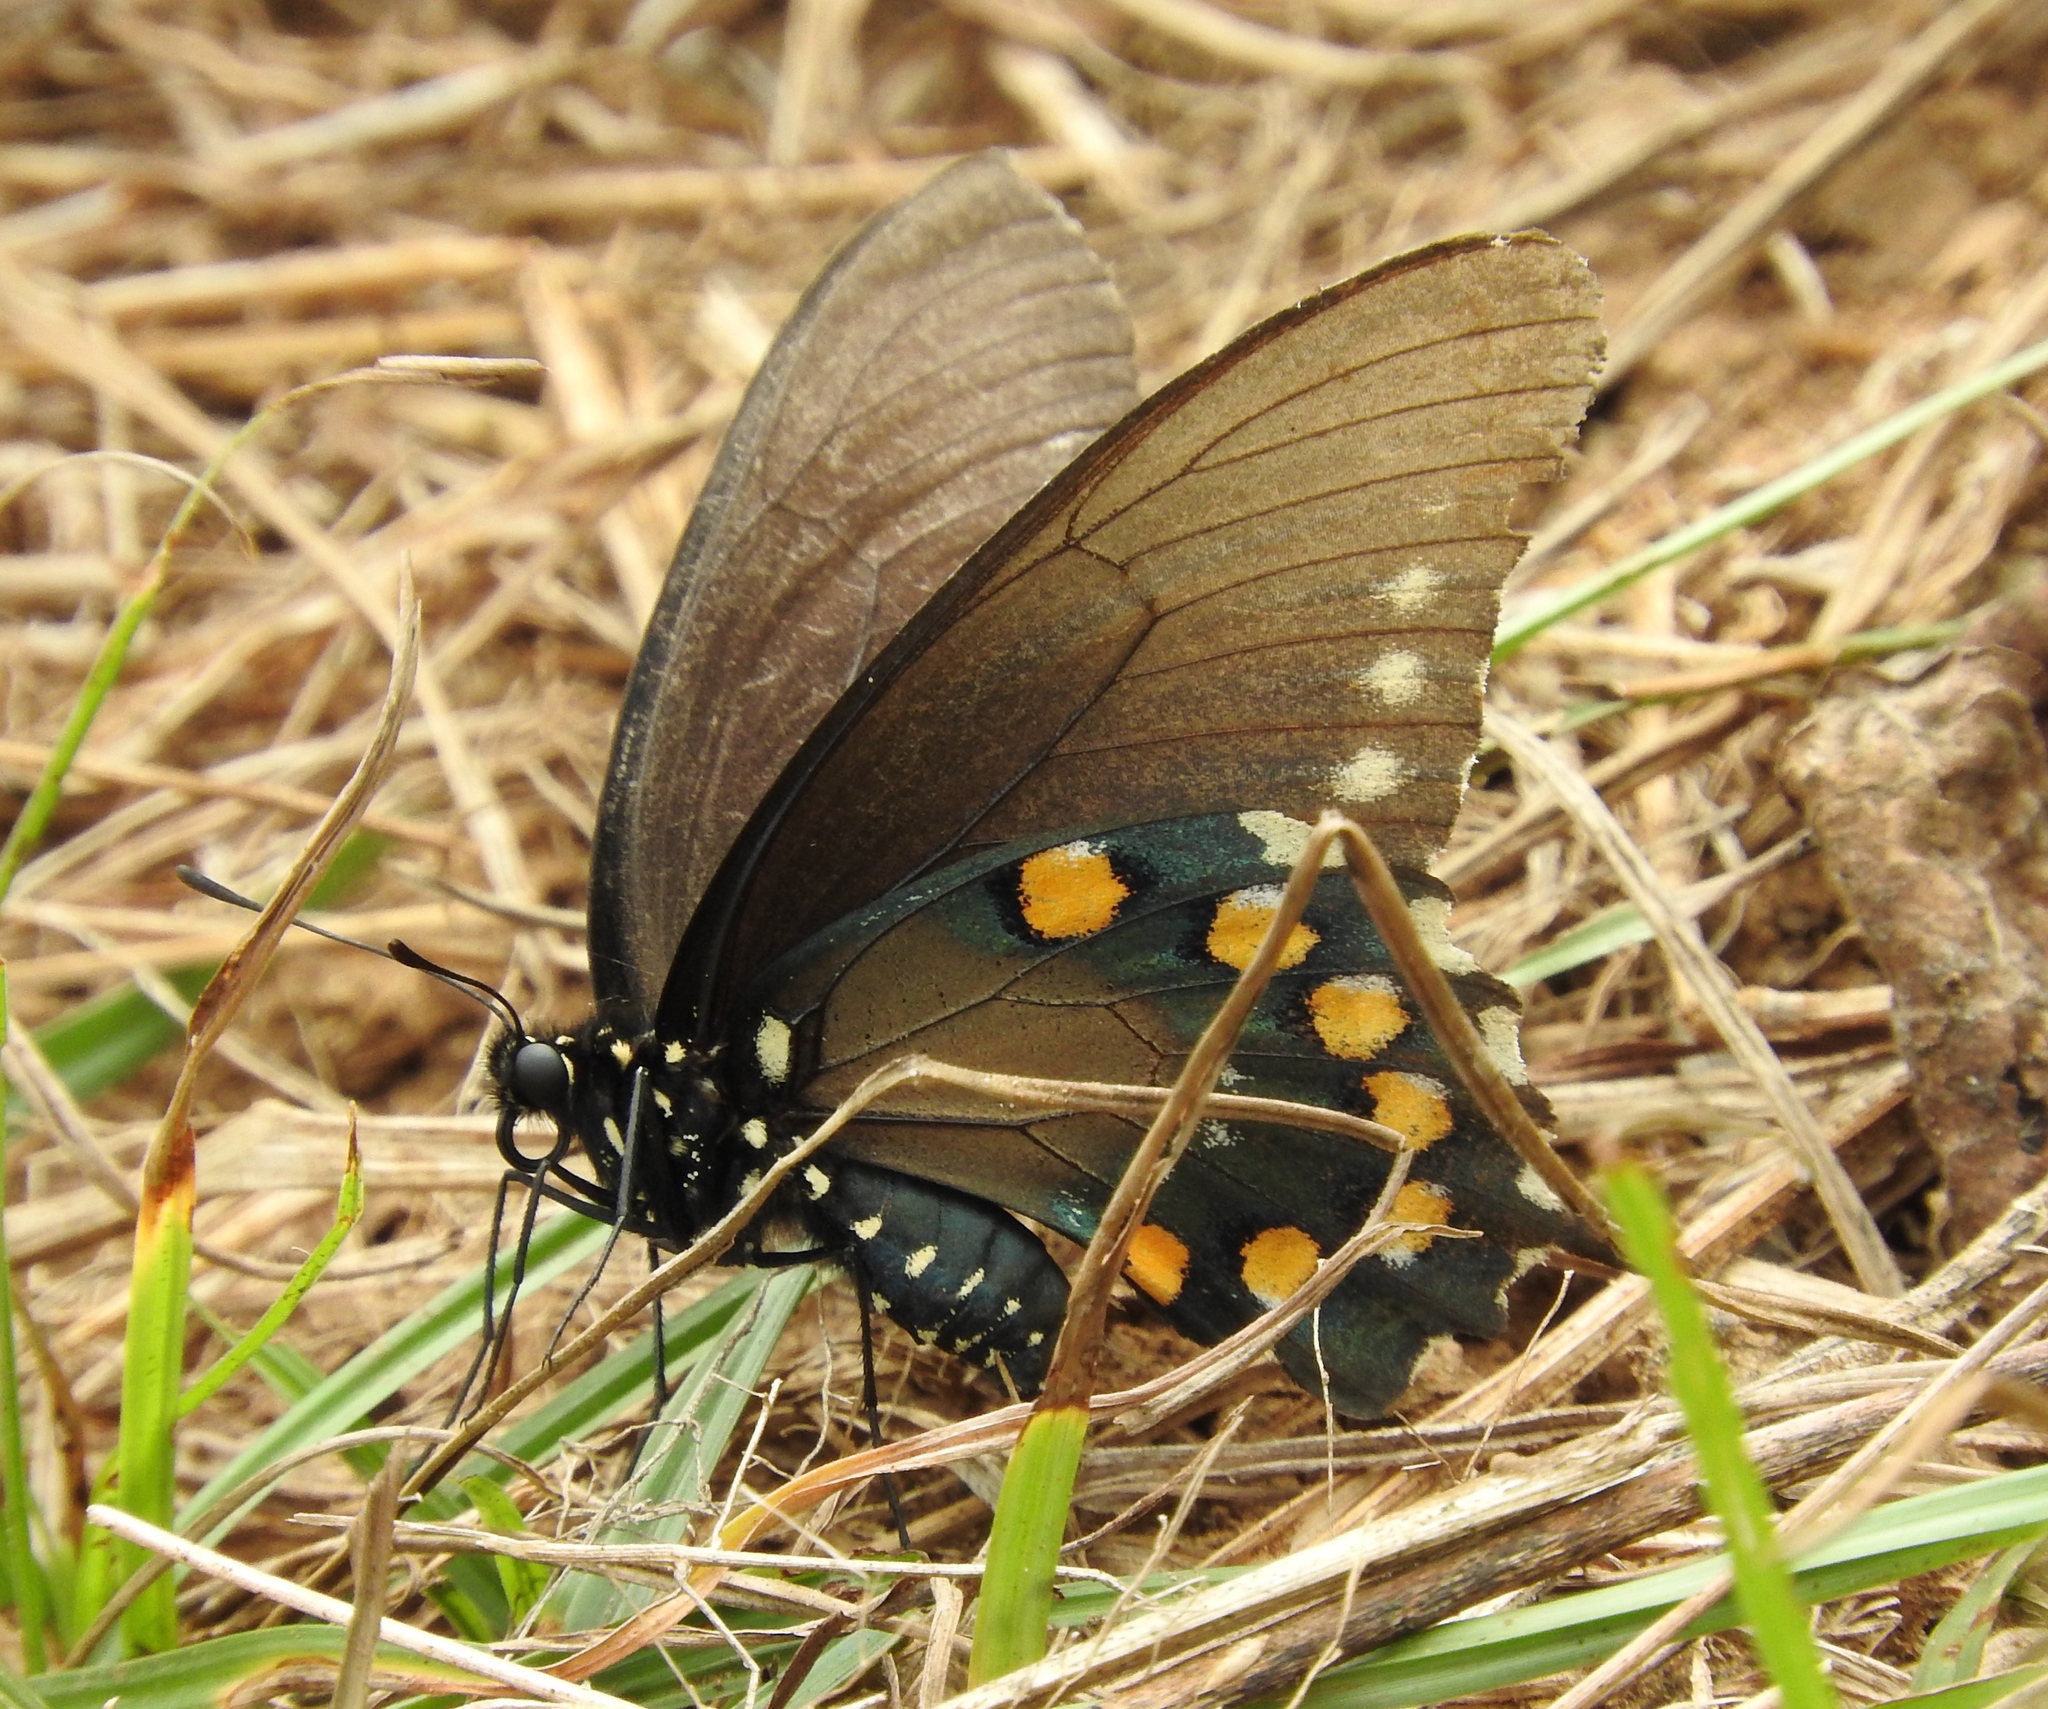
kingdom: Animalia
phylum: Arthropoda
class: Insecta
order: Lepidoptera
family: Papilionidae
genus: Battus
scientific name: Battus philenor
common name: Pipevine swallowtail
